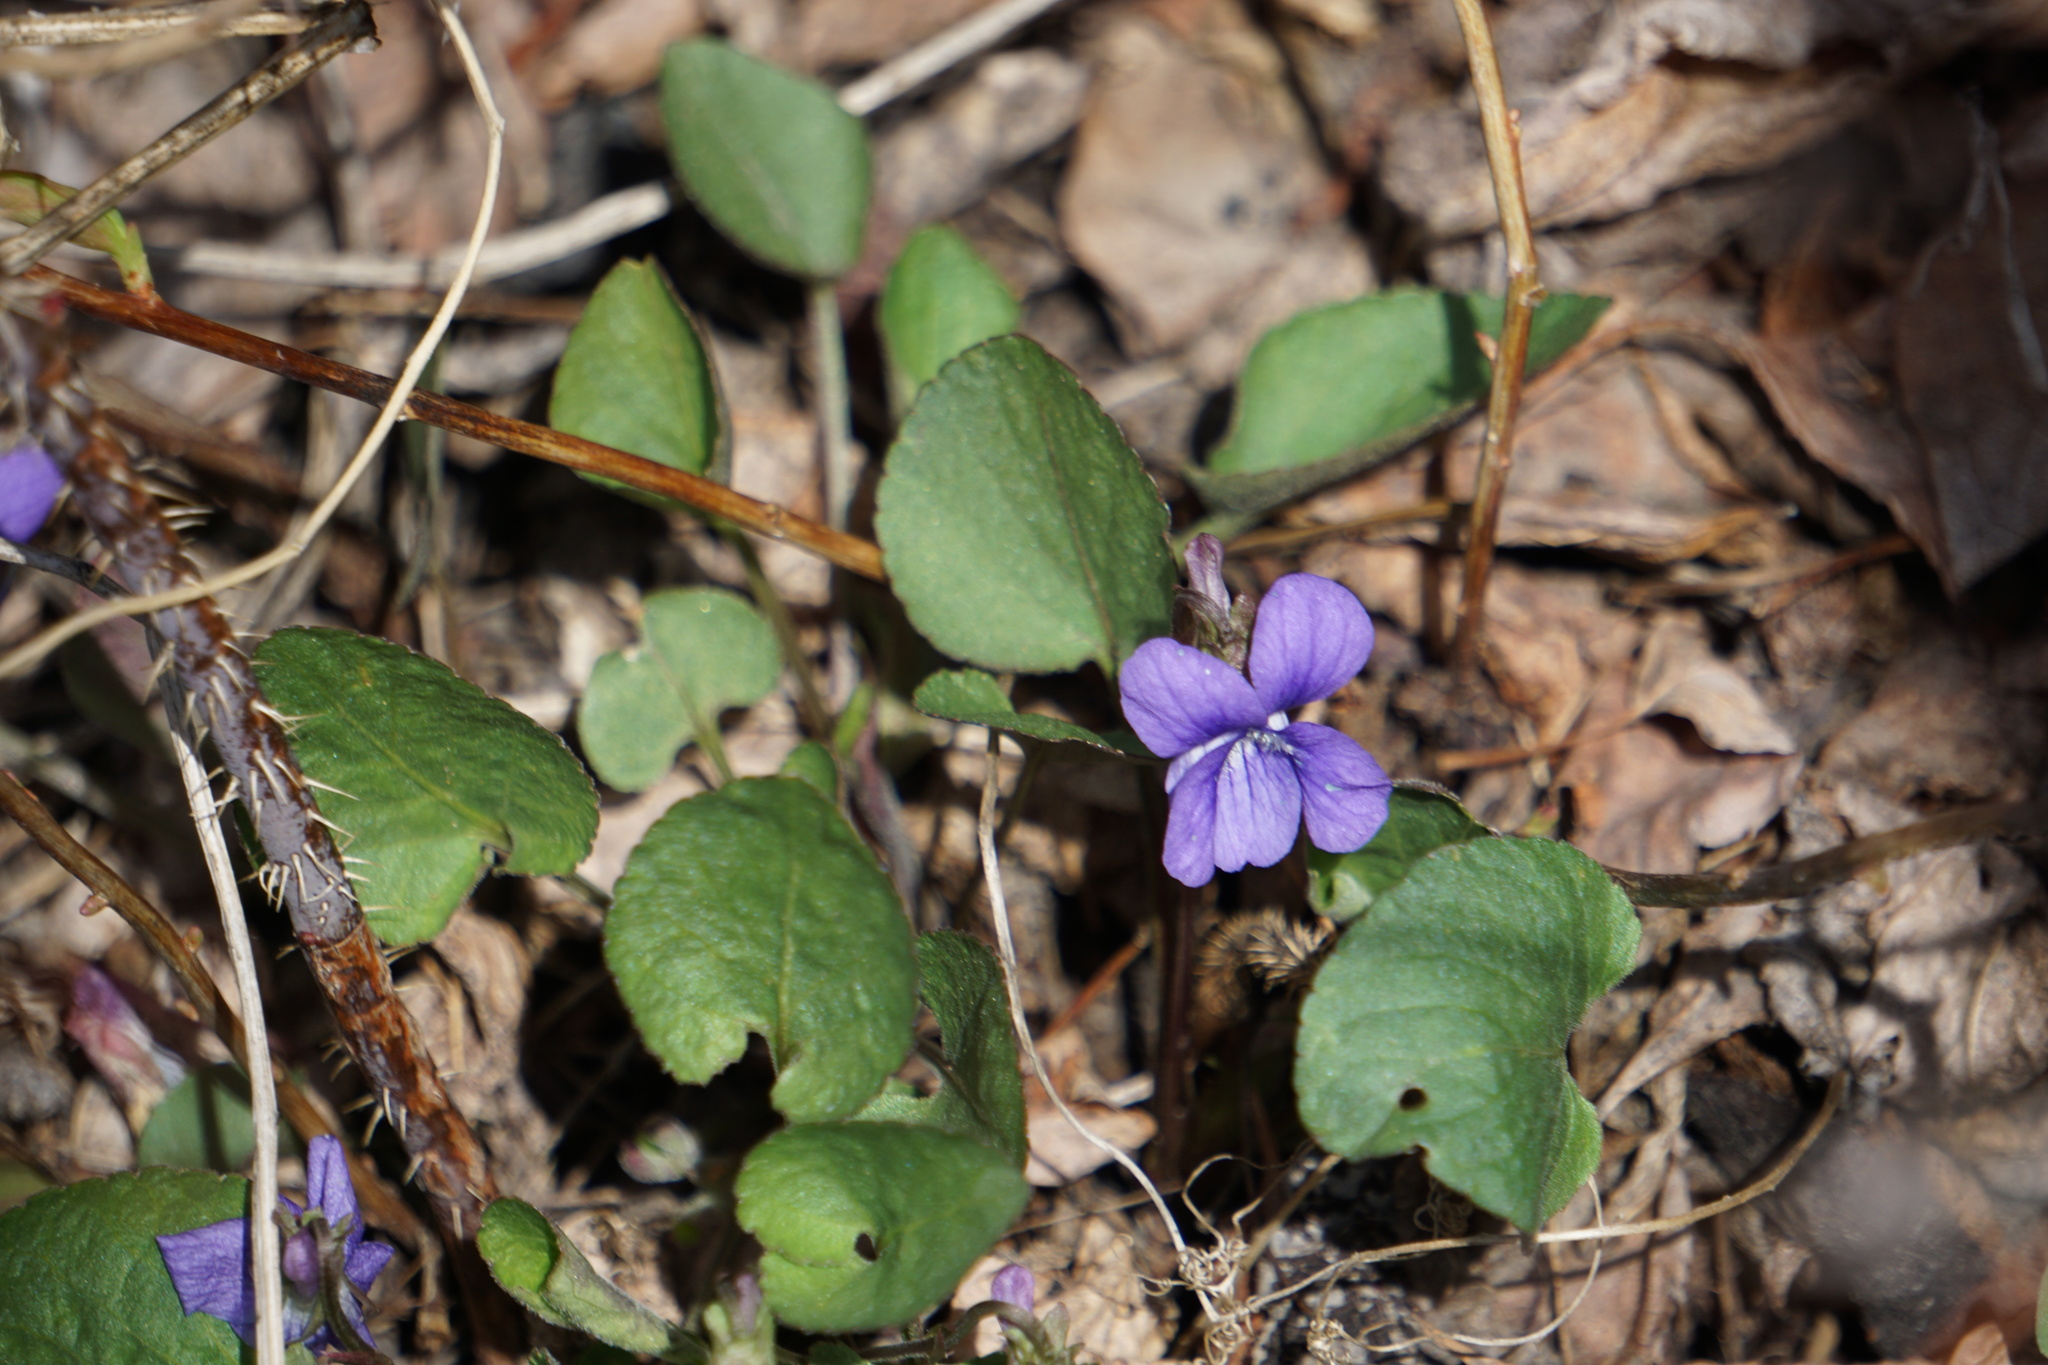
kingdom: Plantae
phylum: Tracheophyta
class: Magnoliopsida
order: Malpighiales
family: Violaceae
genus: Viola
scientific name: Viola adunca
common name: Sand violet
